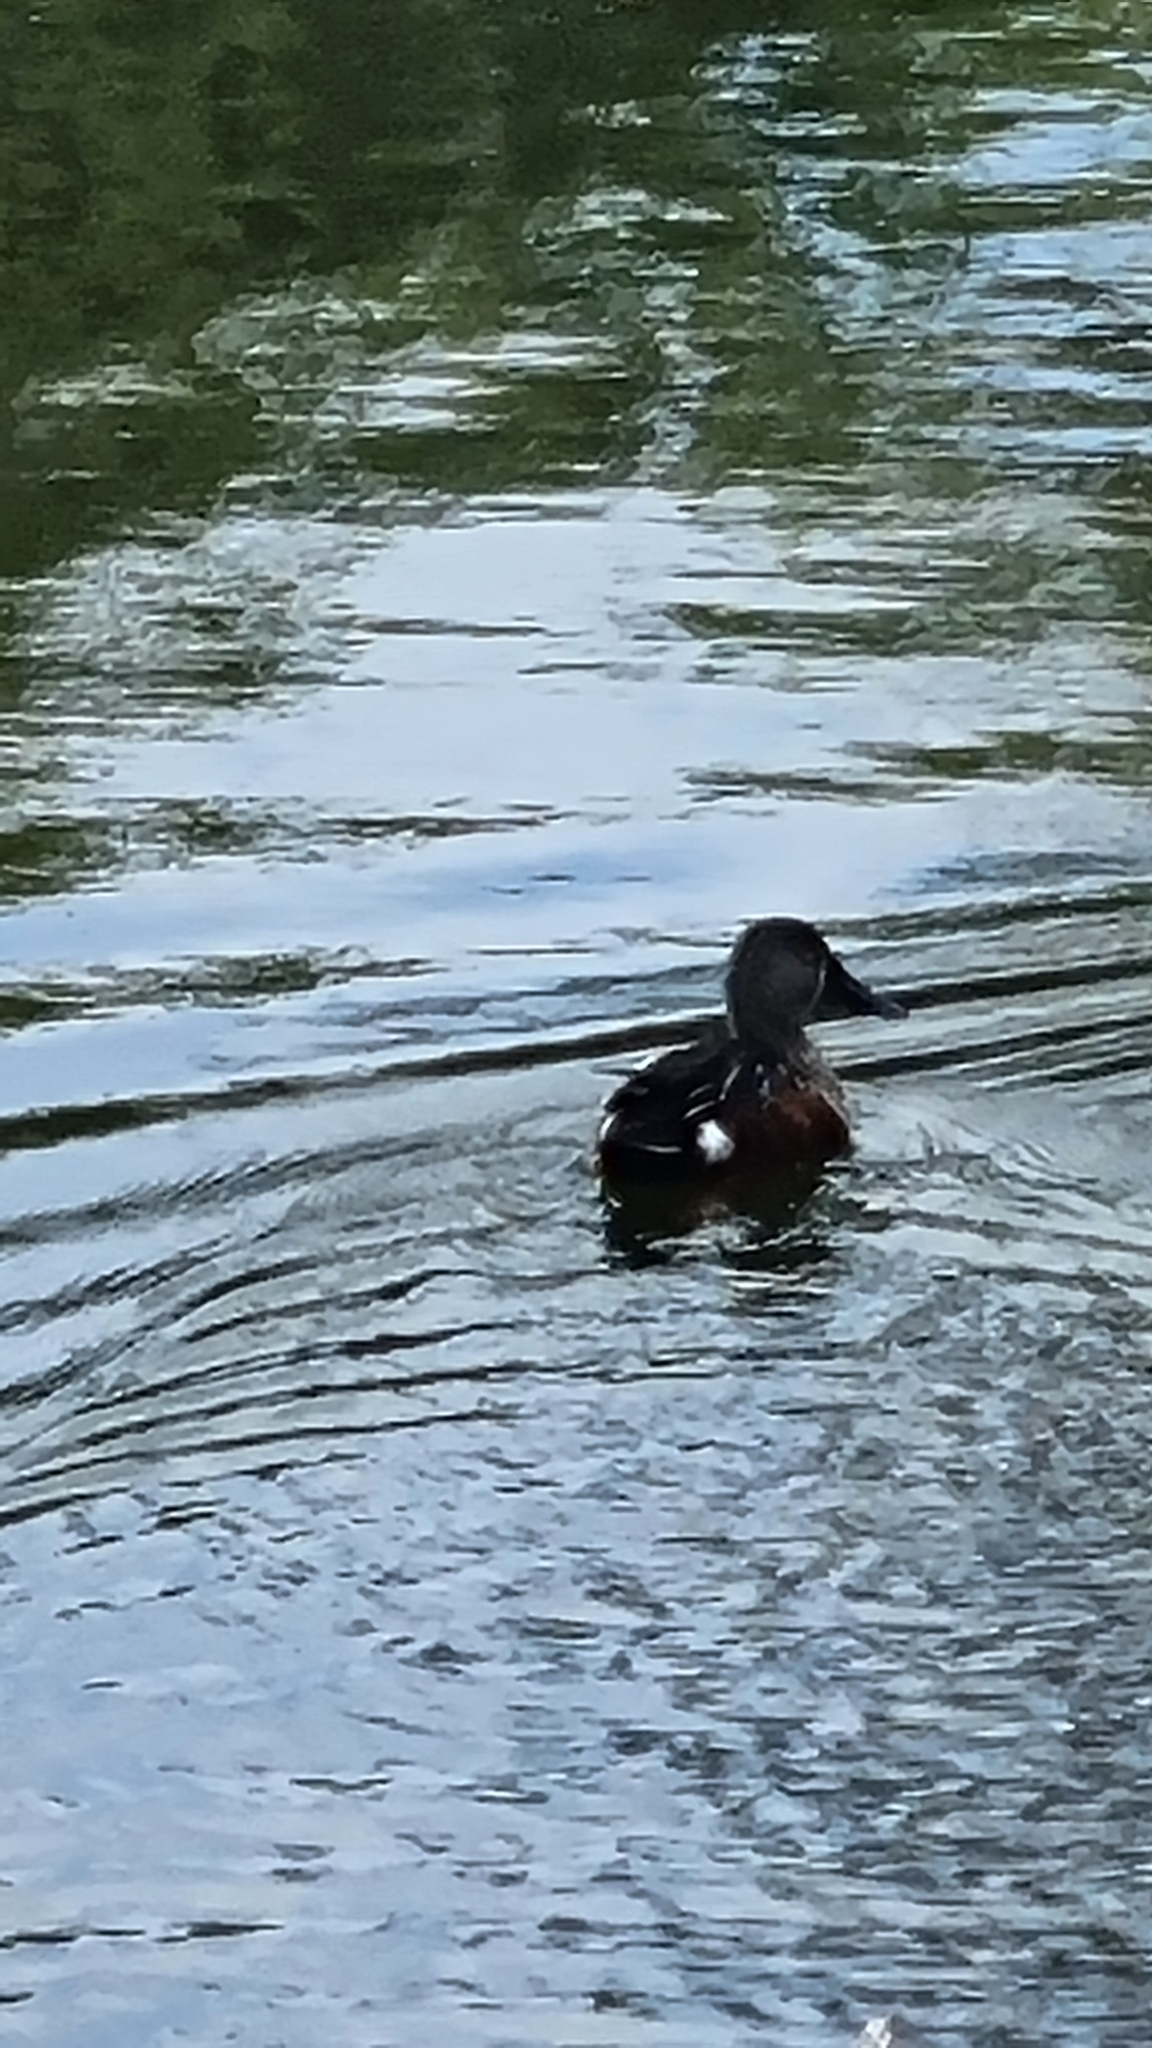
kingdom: Animalia
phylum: Chordata
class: Aves
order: Anseriformes
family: Anatidae
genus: Spatula
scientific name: Spatula rhynchotis
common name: Australian shoveler
